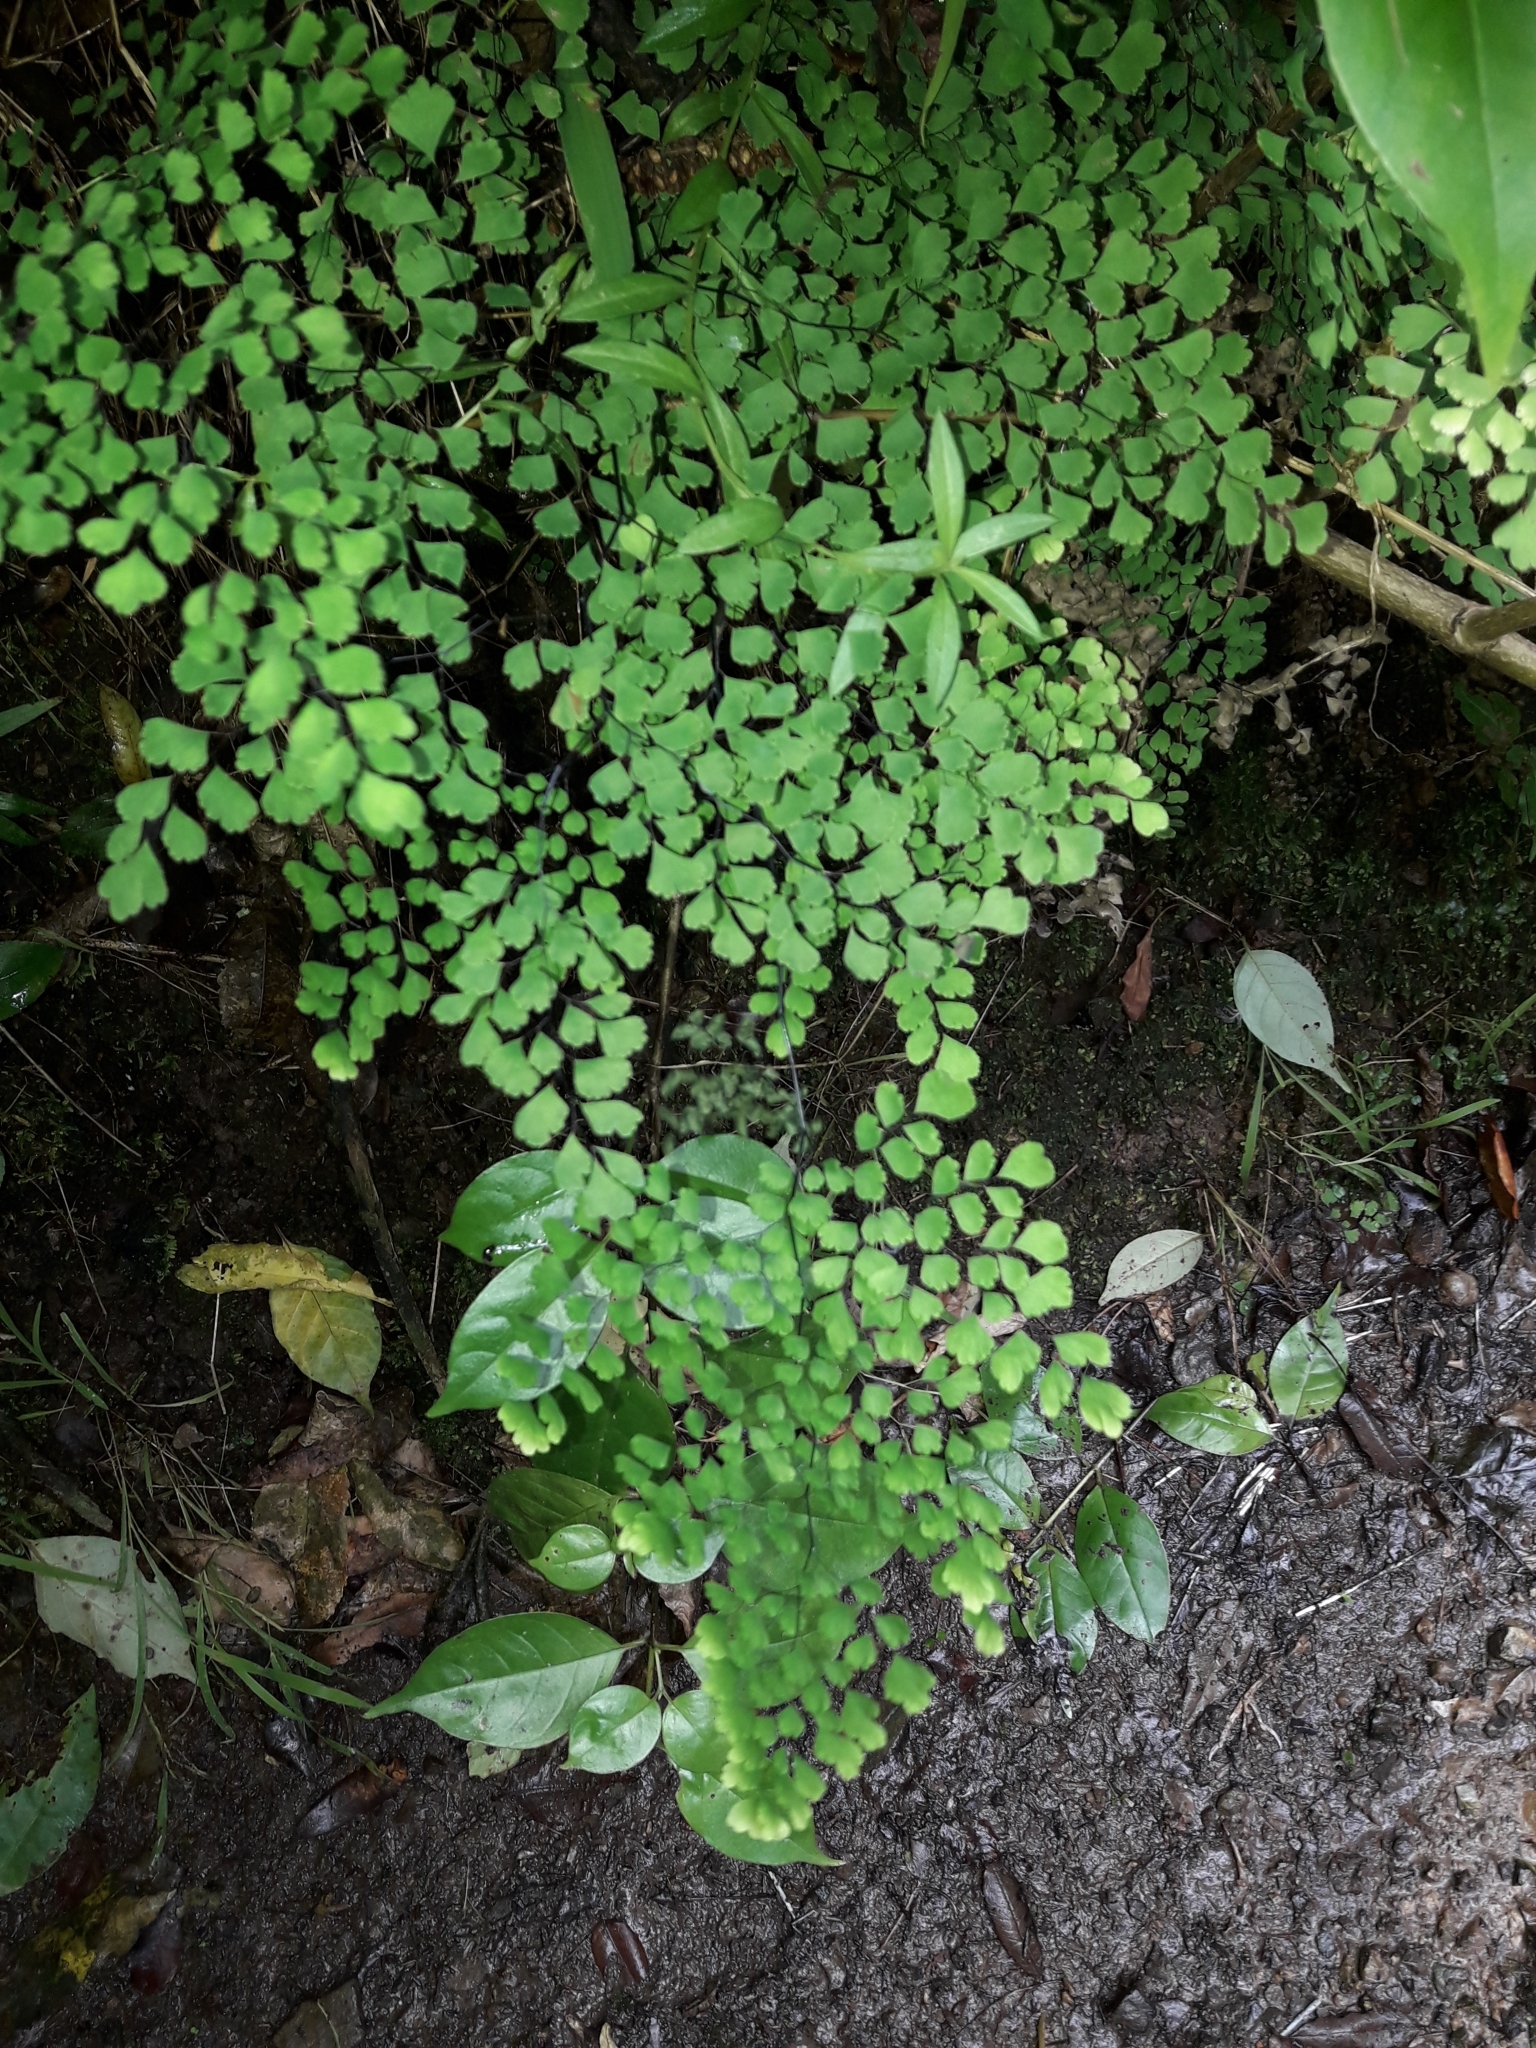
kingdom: Plantae
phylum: Tracheophyta
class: Polypodiopsida
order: Polypodiales
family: Pteridaceae
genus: Adiantum
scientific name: Adiantum raddianum
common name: Delta maidenhair fern
